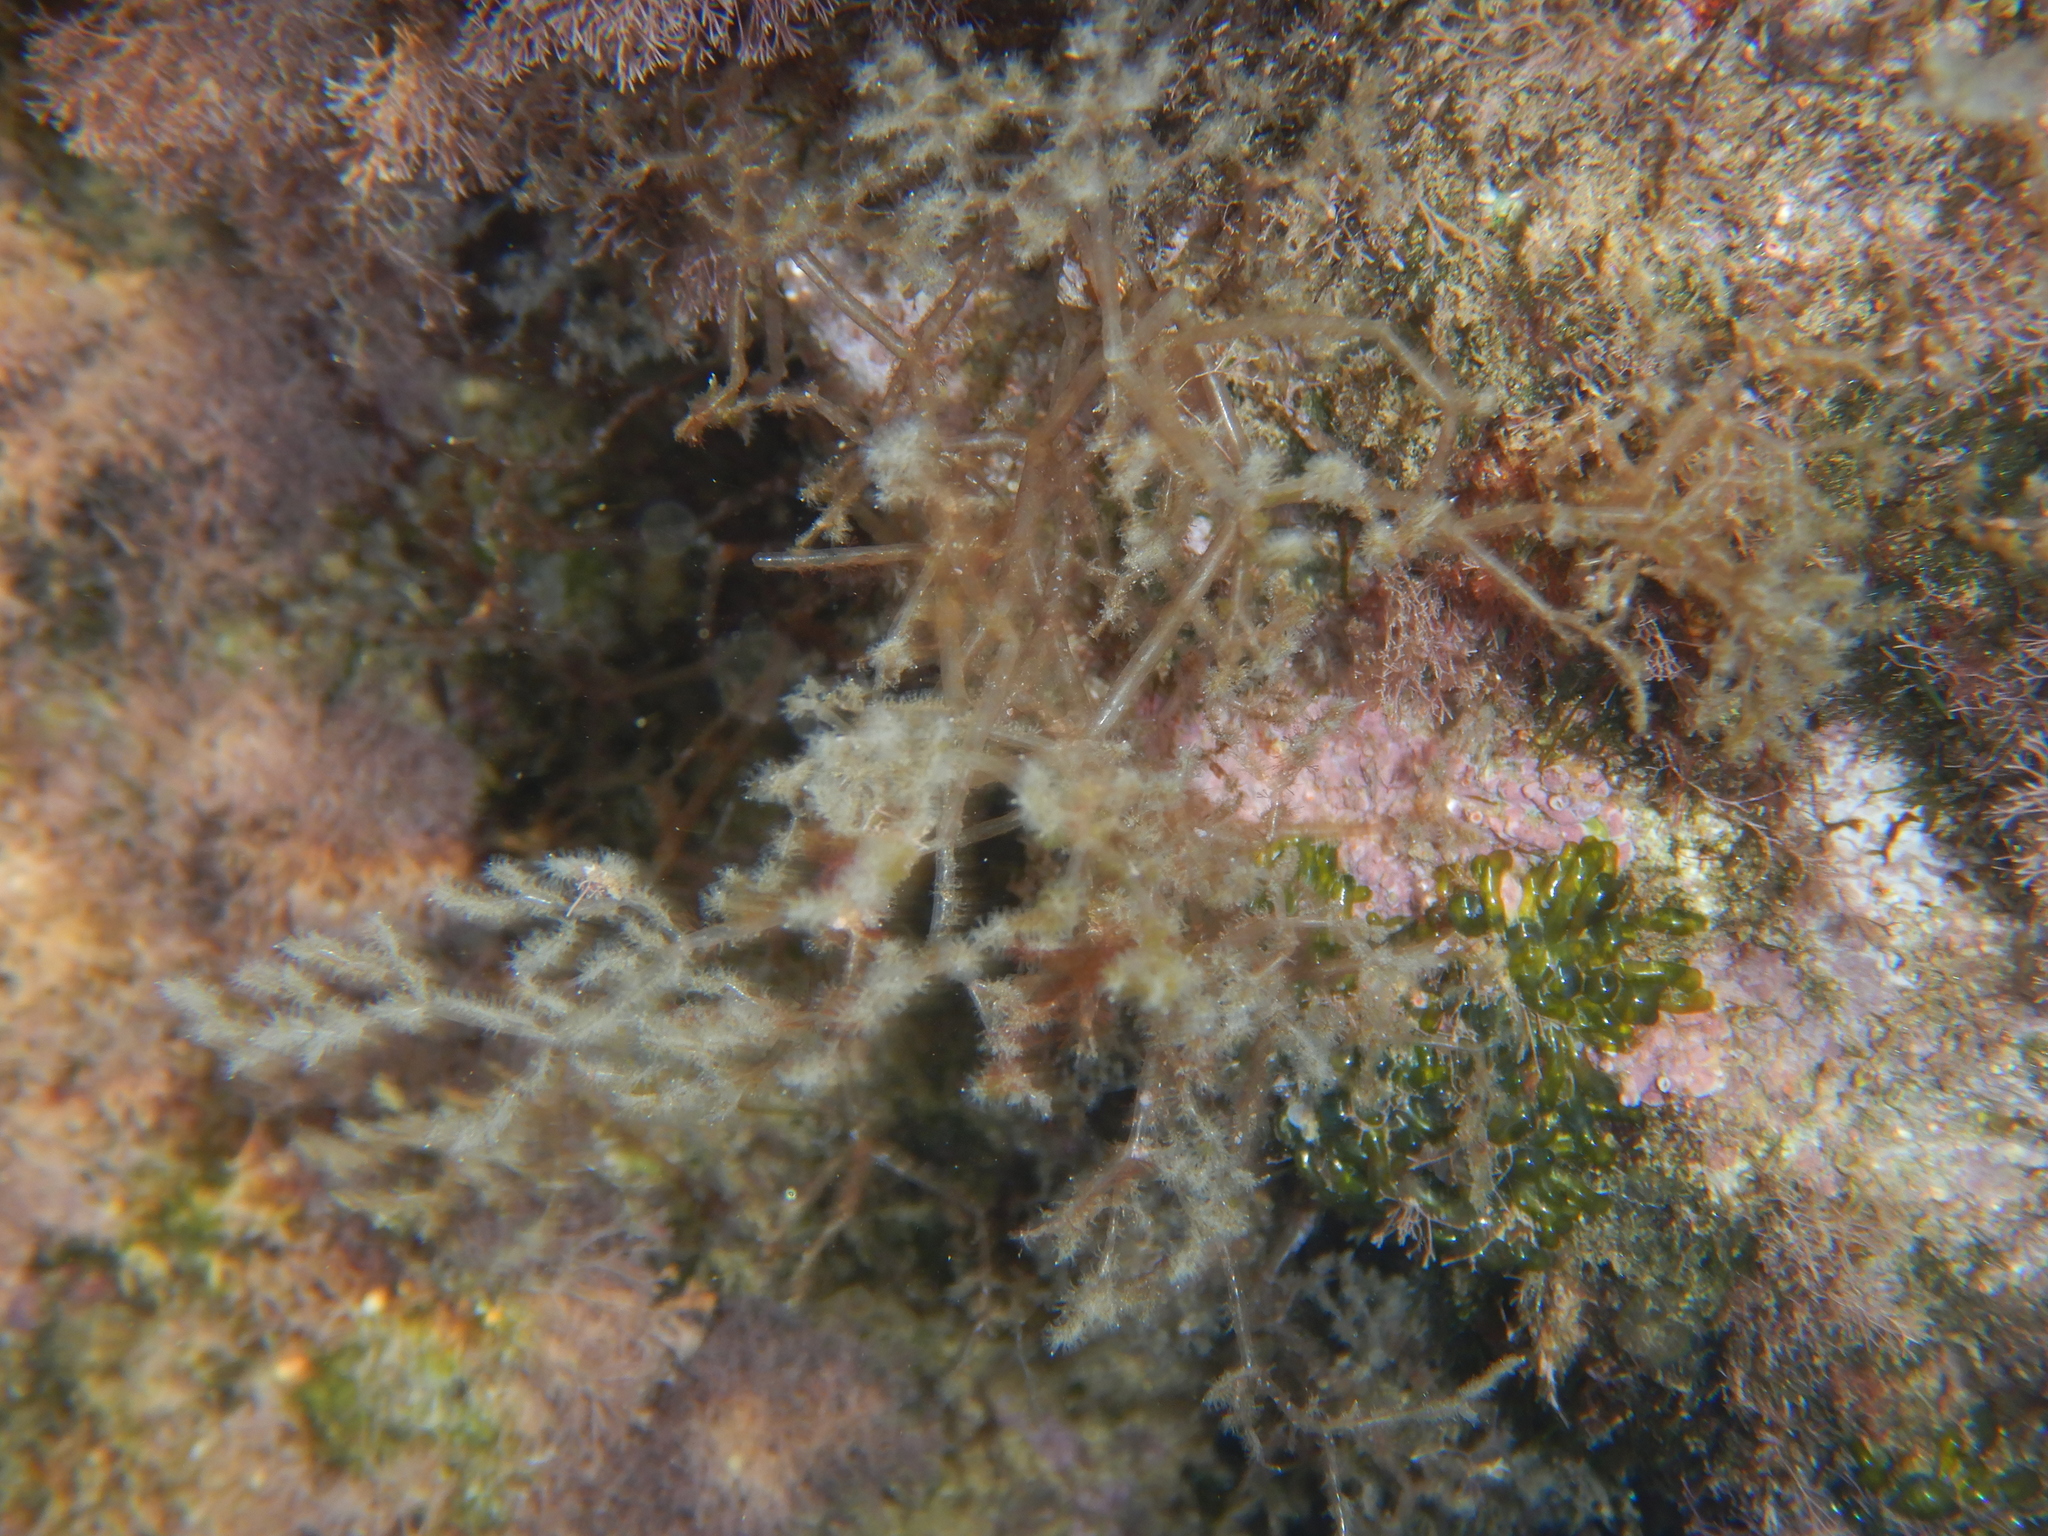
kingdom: Animalia
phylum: Bryozoa
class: Gymnolaemata
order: Ctenostomatida
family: Vesiculariidae
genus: Amathia
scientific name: Amathia verticillata
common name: Whorled zoobotryon
